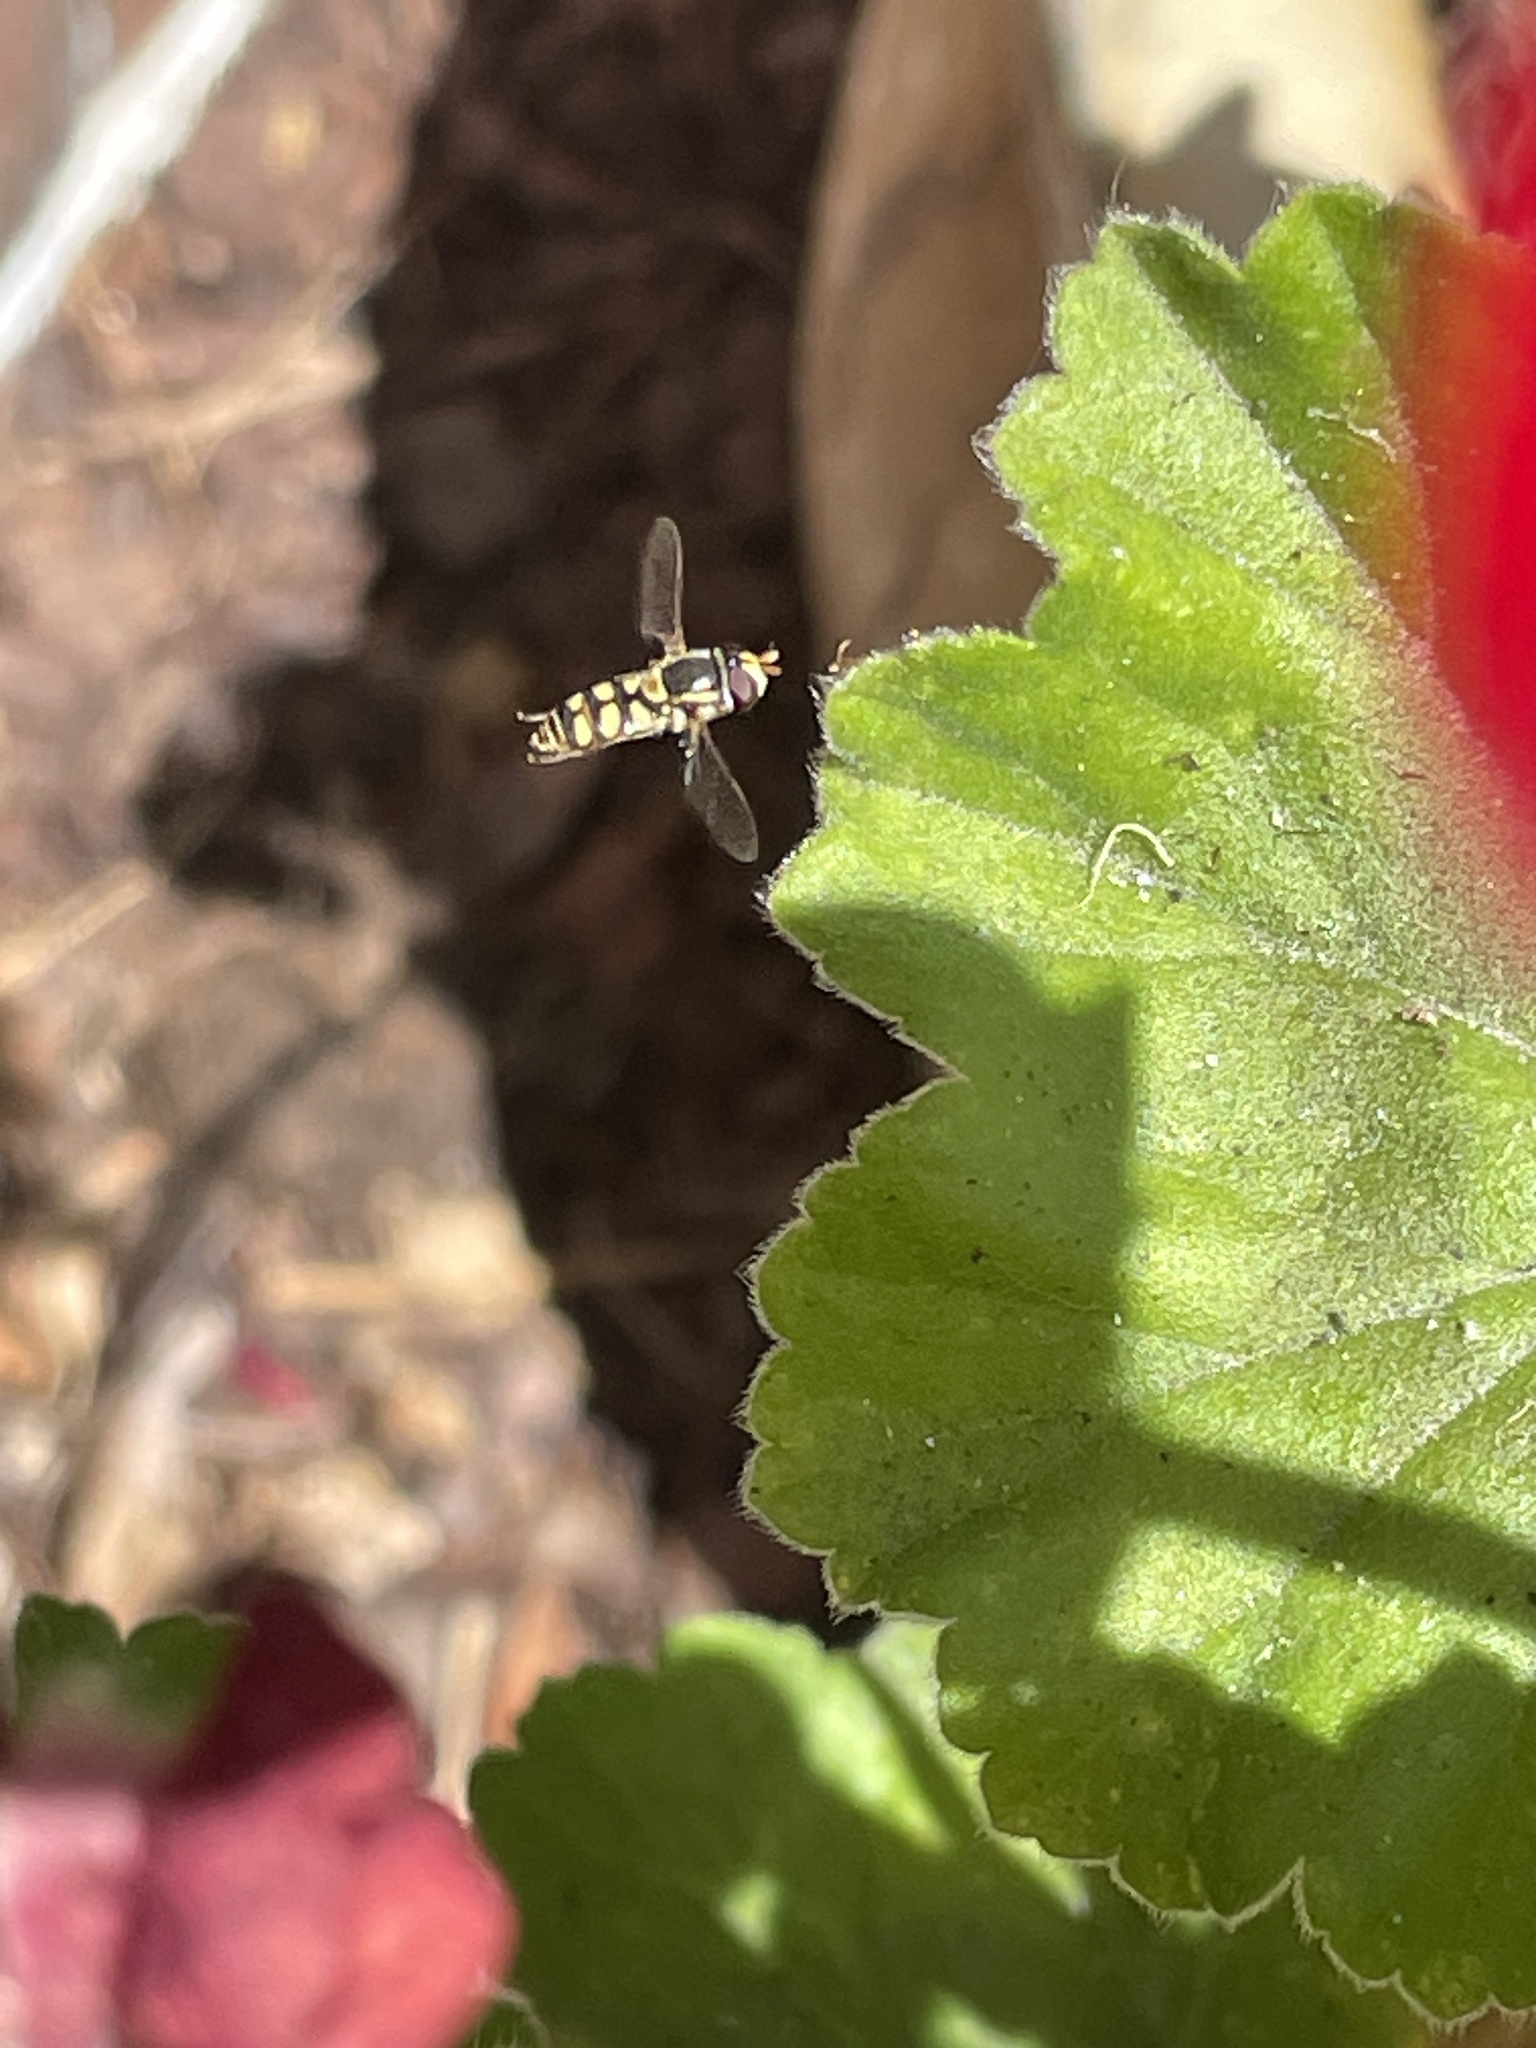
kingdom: Animalia
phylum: Arthropoda
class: Insecta
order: Diptera
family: Syrphidae
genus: Simosyrphus
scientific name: Simosyrphus grandicornis
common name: Hoverfly
